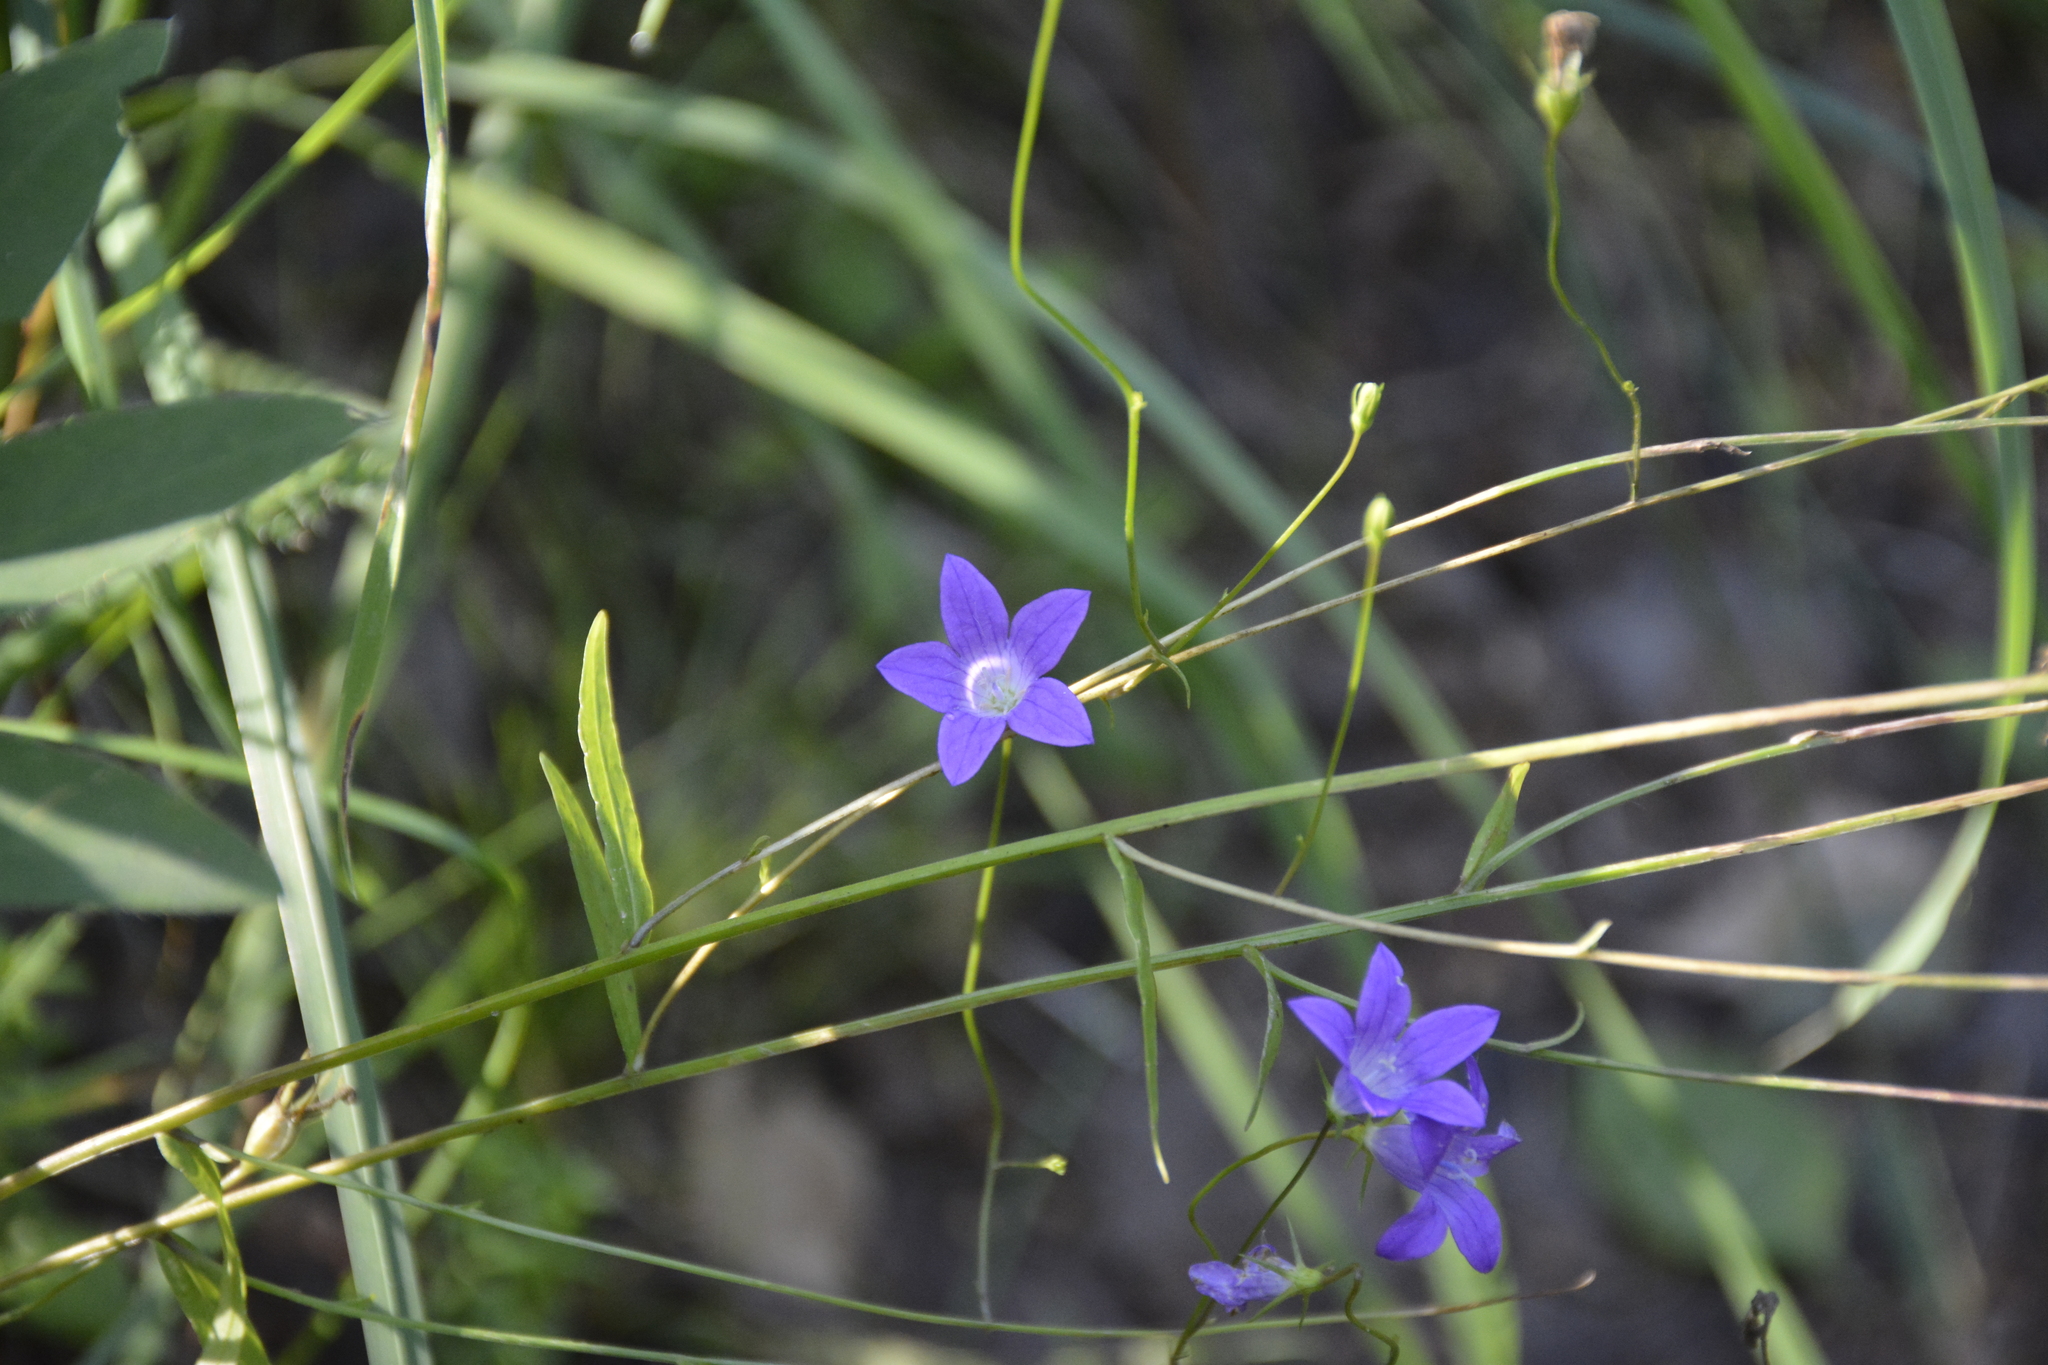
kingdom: Plantae
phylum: Tracheophyta
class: Magnoliopsida
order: Asterales
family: Campanulaceae
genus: Campanula
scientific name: Campanula patula
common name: Spreading bellflower
